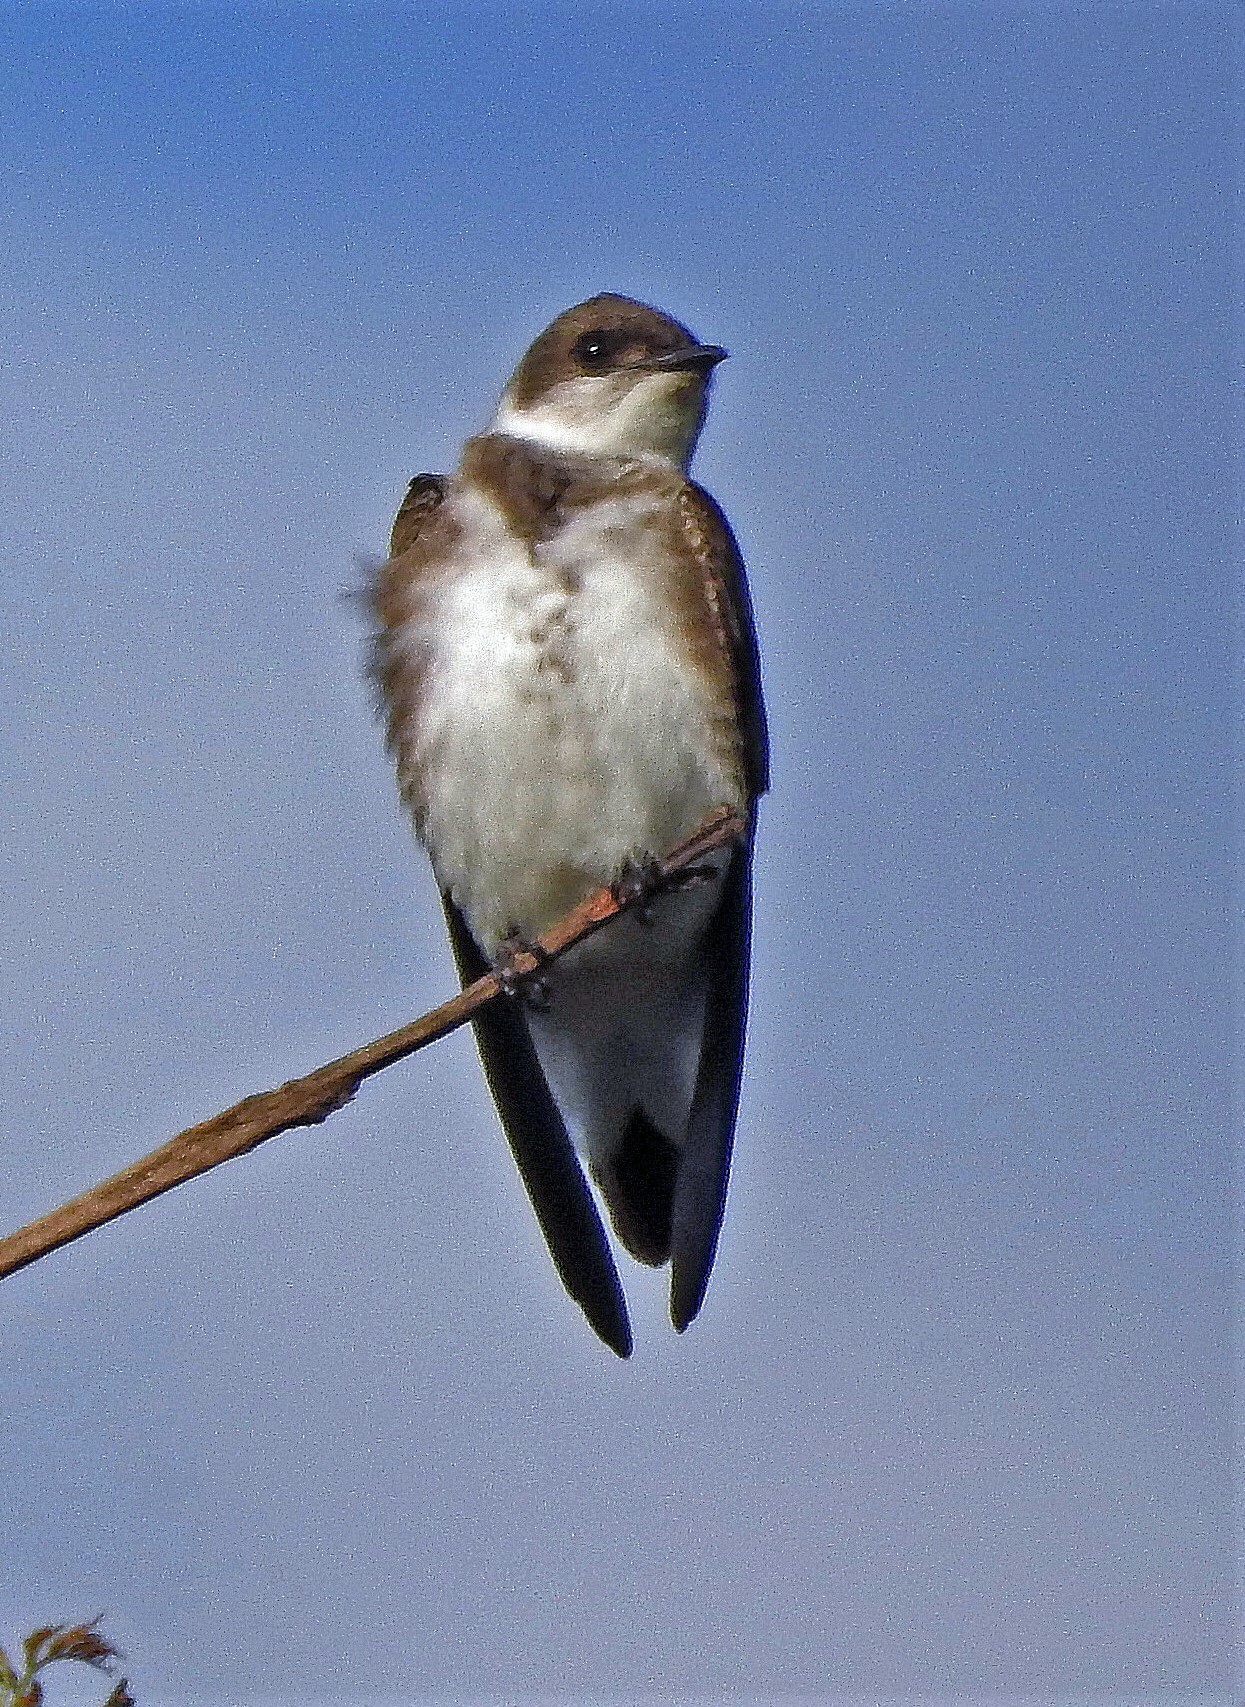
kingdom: Animalia
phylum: Chordata
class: Aves
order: Passeriformes
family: Hirundinidae
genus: Progne
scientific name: Progne tapera
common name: Brown-chested martin
